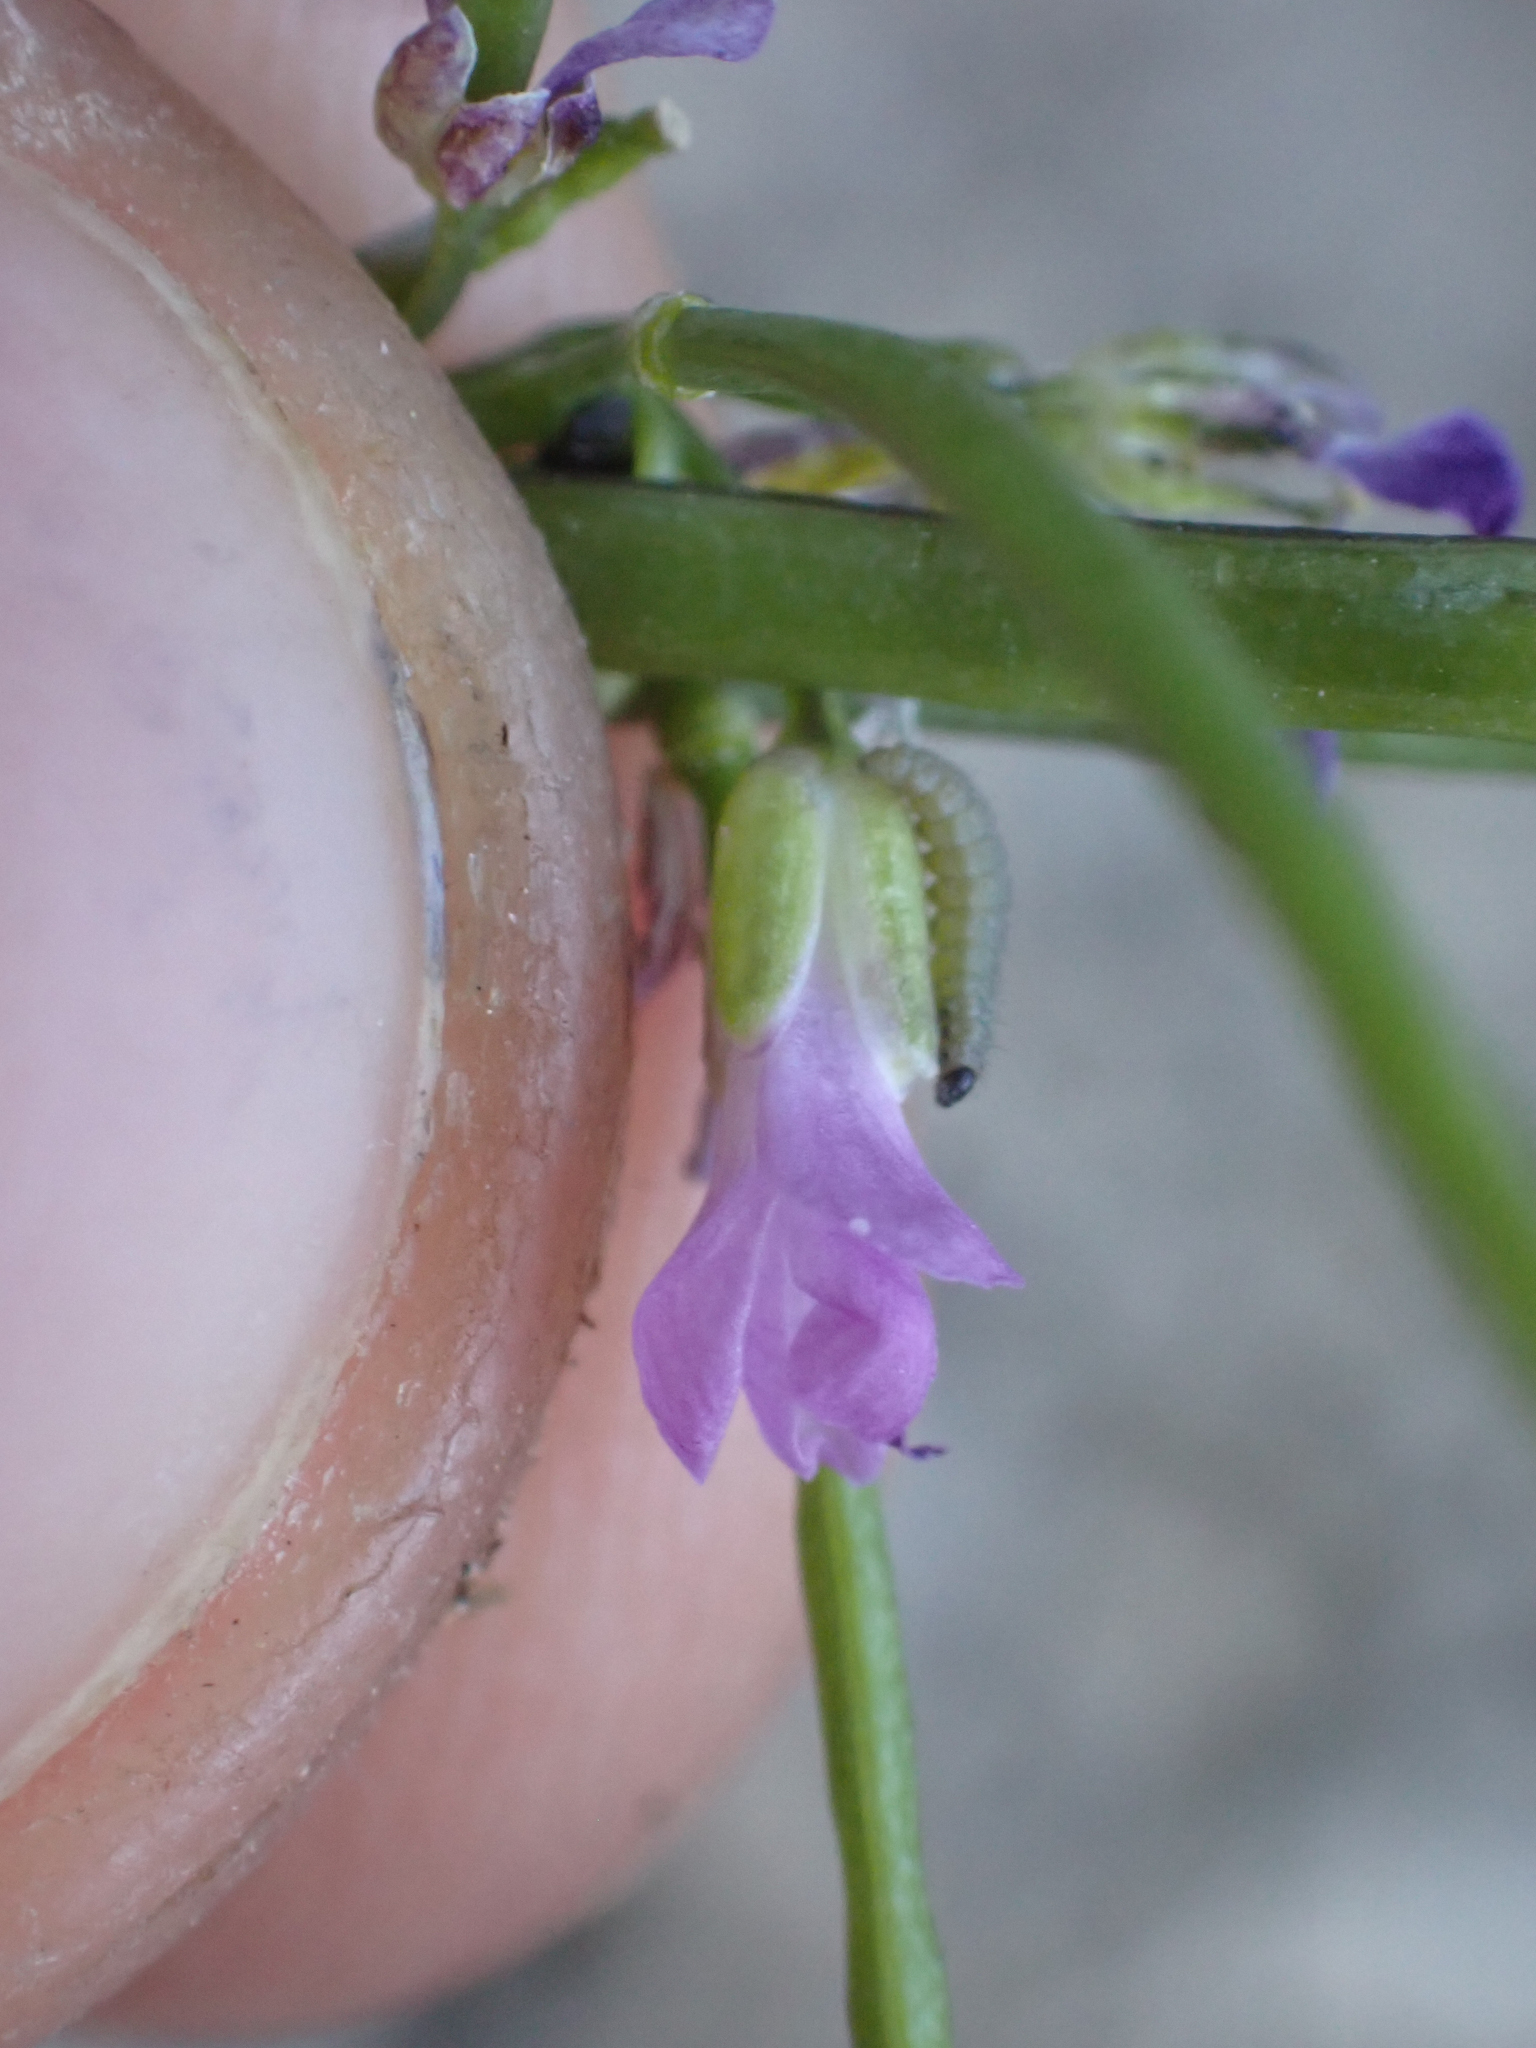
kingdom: Plantae
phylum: Tracheophyta
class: Magnoliopsida
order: Brassicales
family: Brassicaceae
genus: Boechera
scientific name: Boechera tiehmii
